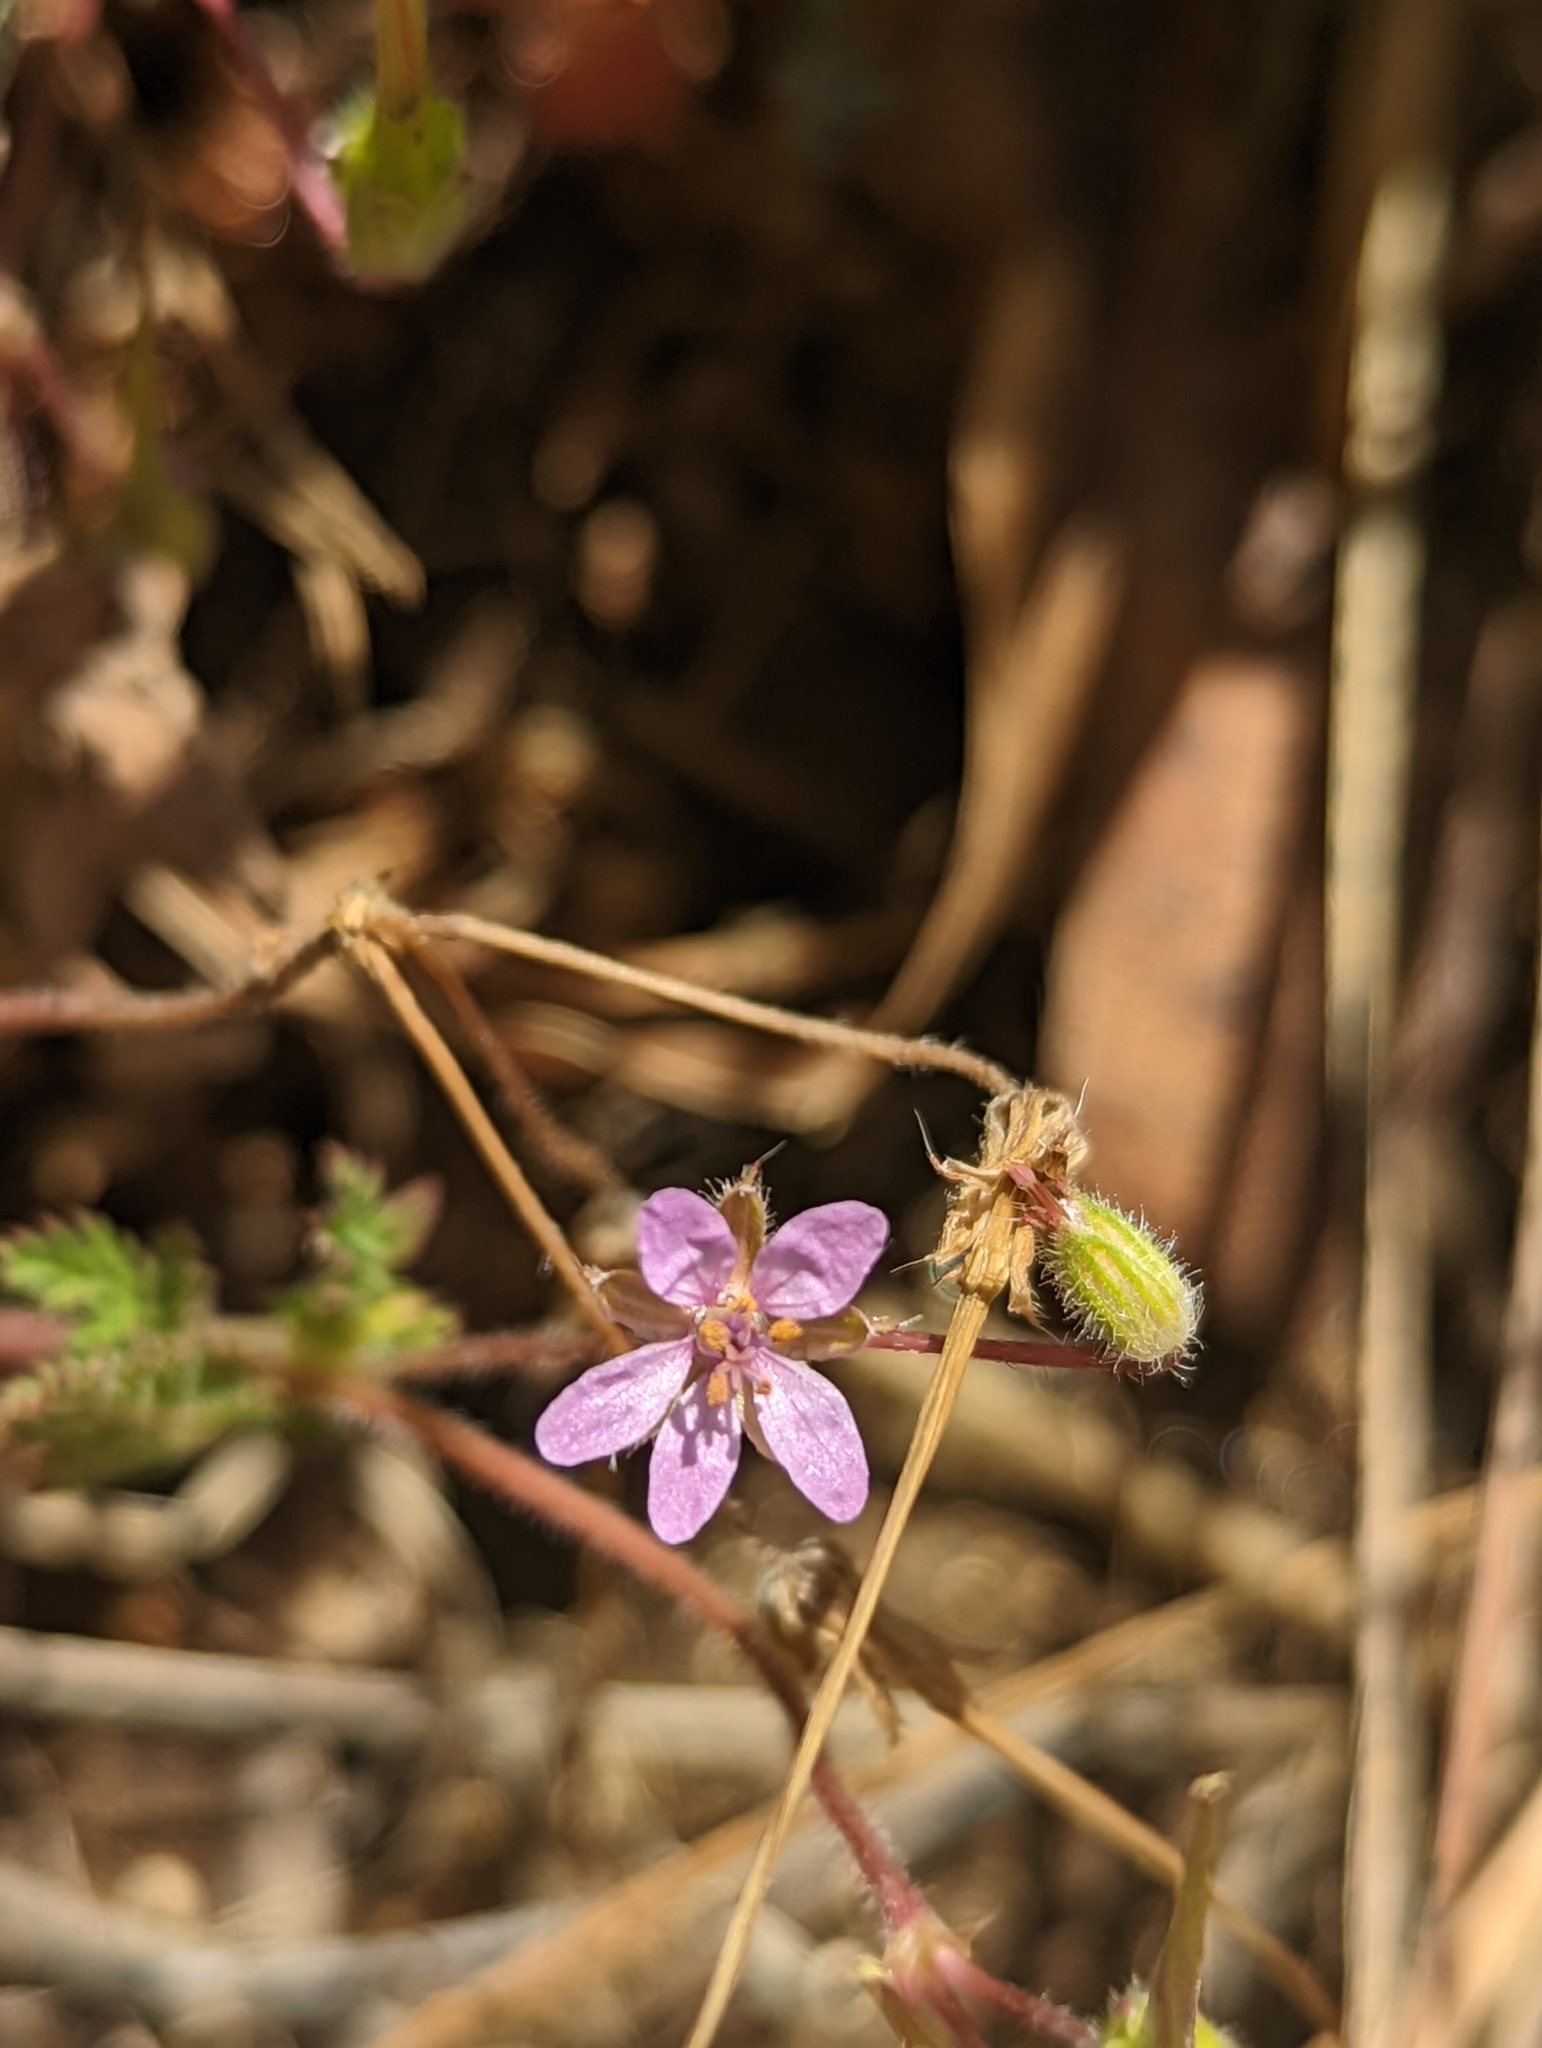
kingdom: Plantae
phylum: Tracheophyta
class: Magnoliopsida
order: Geraniales
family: Geraniaceae
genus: Erodium
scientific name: Erodium cicutarium
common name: Common stork's-bill
